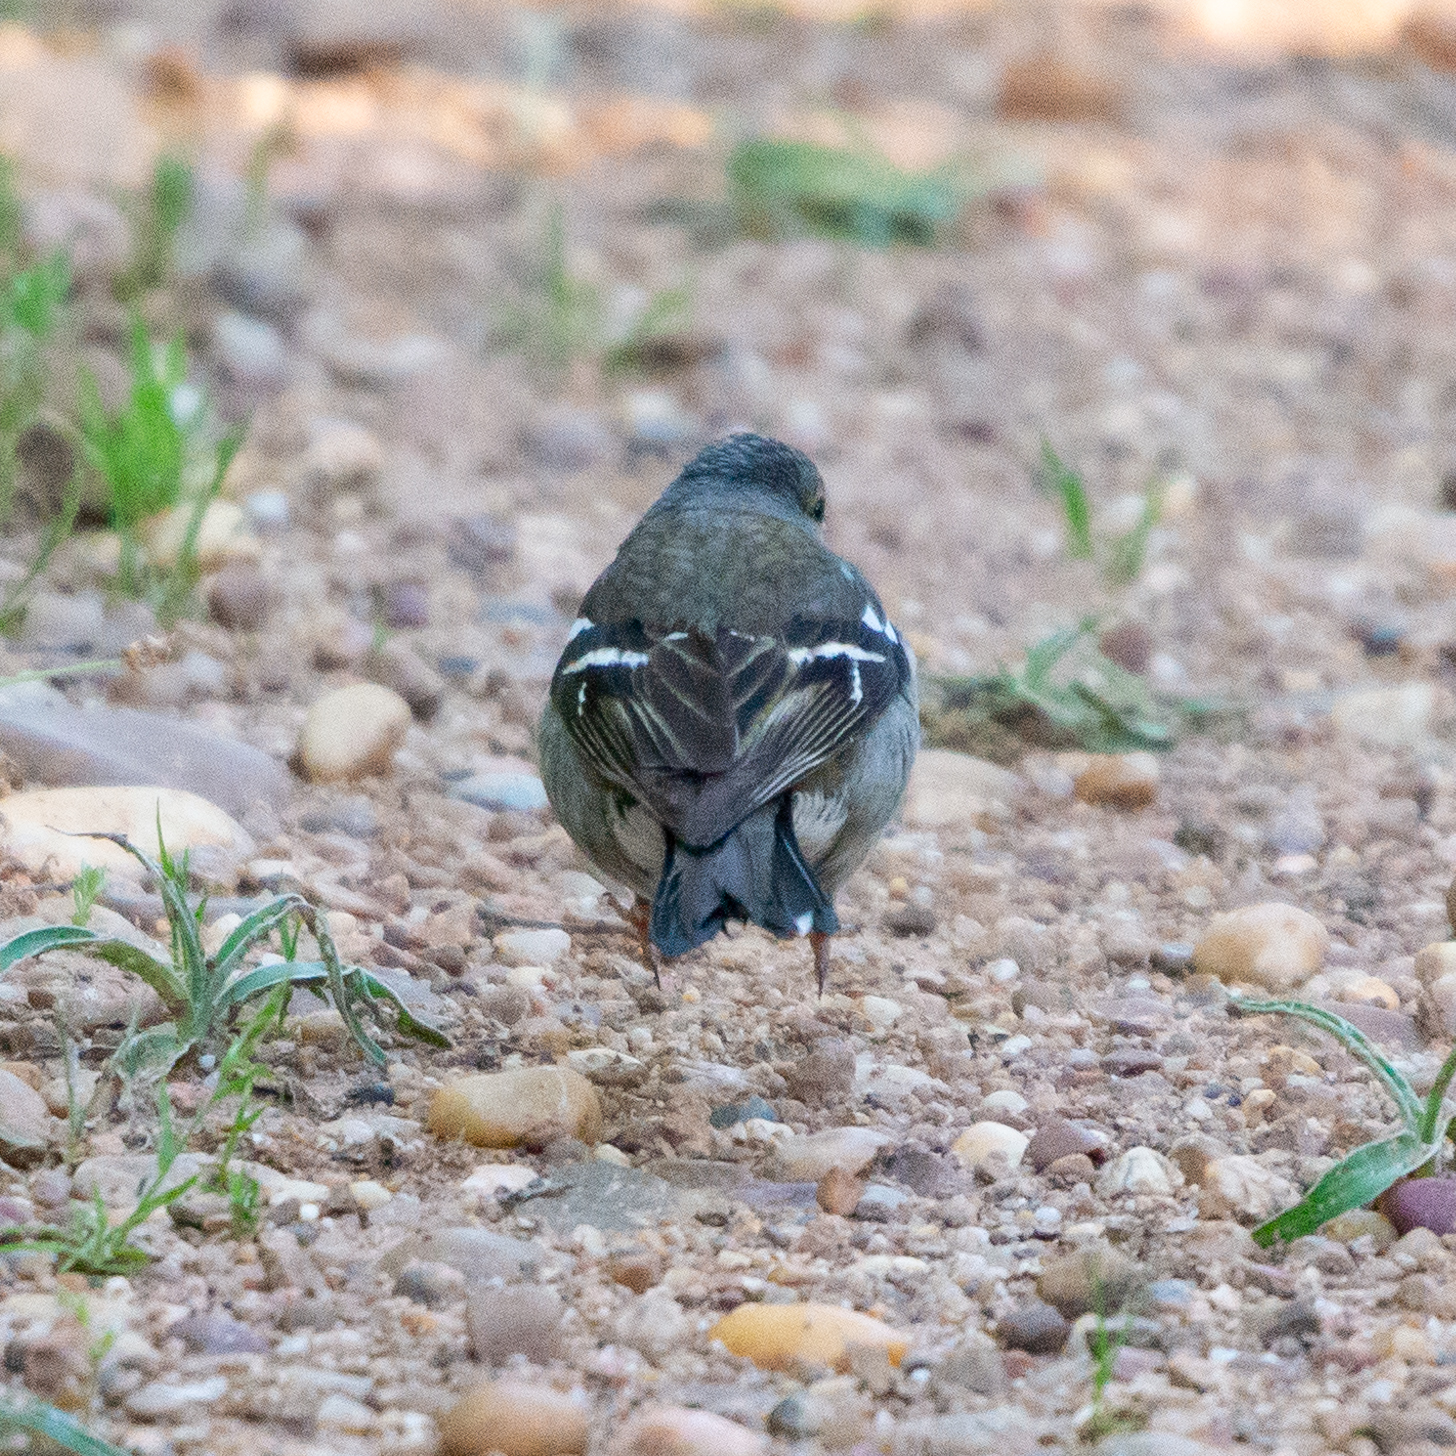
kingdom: Animalia
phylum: Chordata
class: Aves
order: Passeriformes
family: Fringillidae
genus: Fringilla
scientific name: Fringilla coelebs
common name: Common chaffinch
